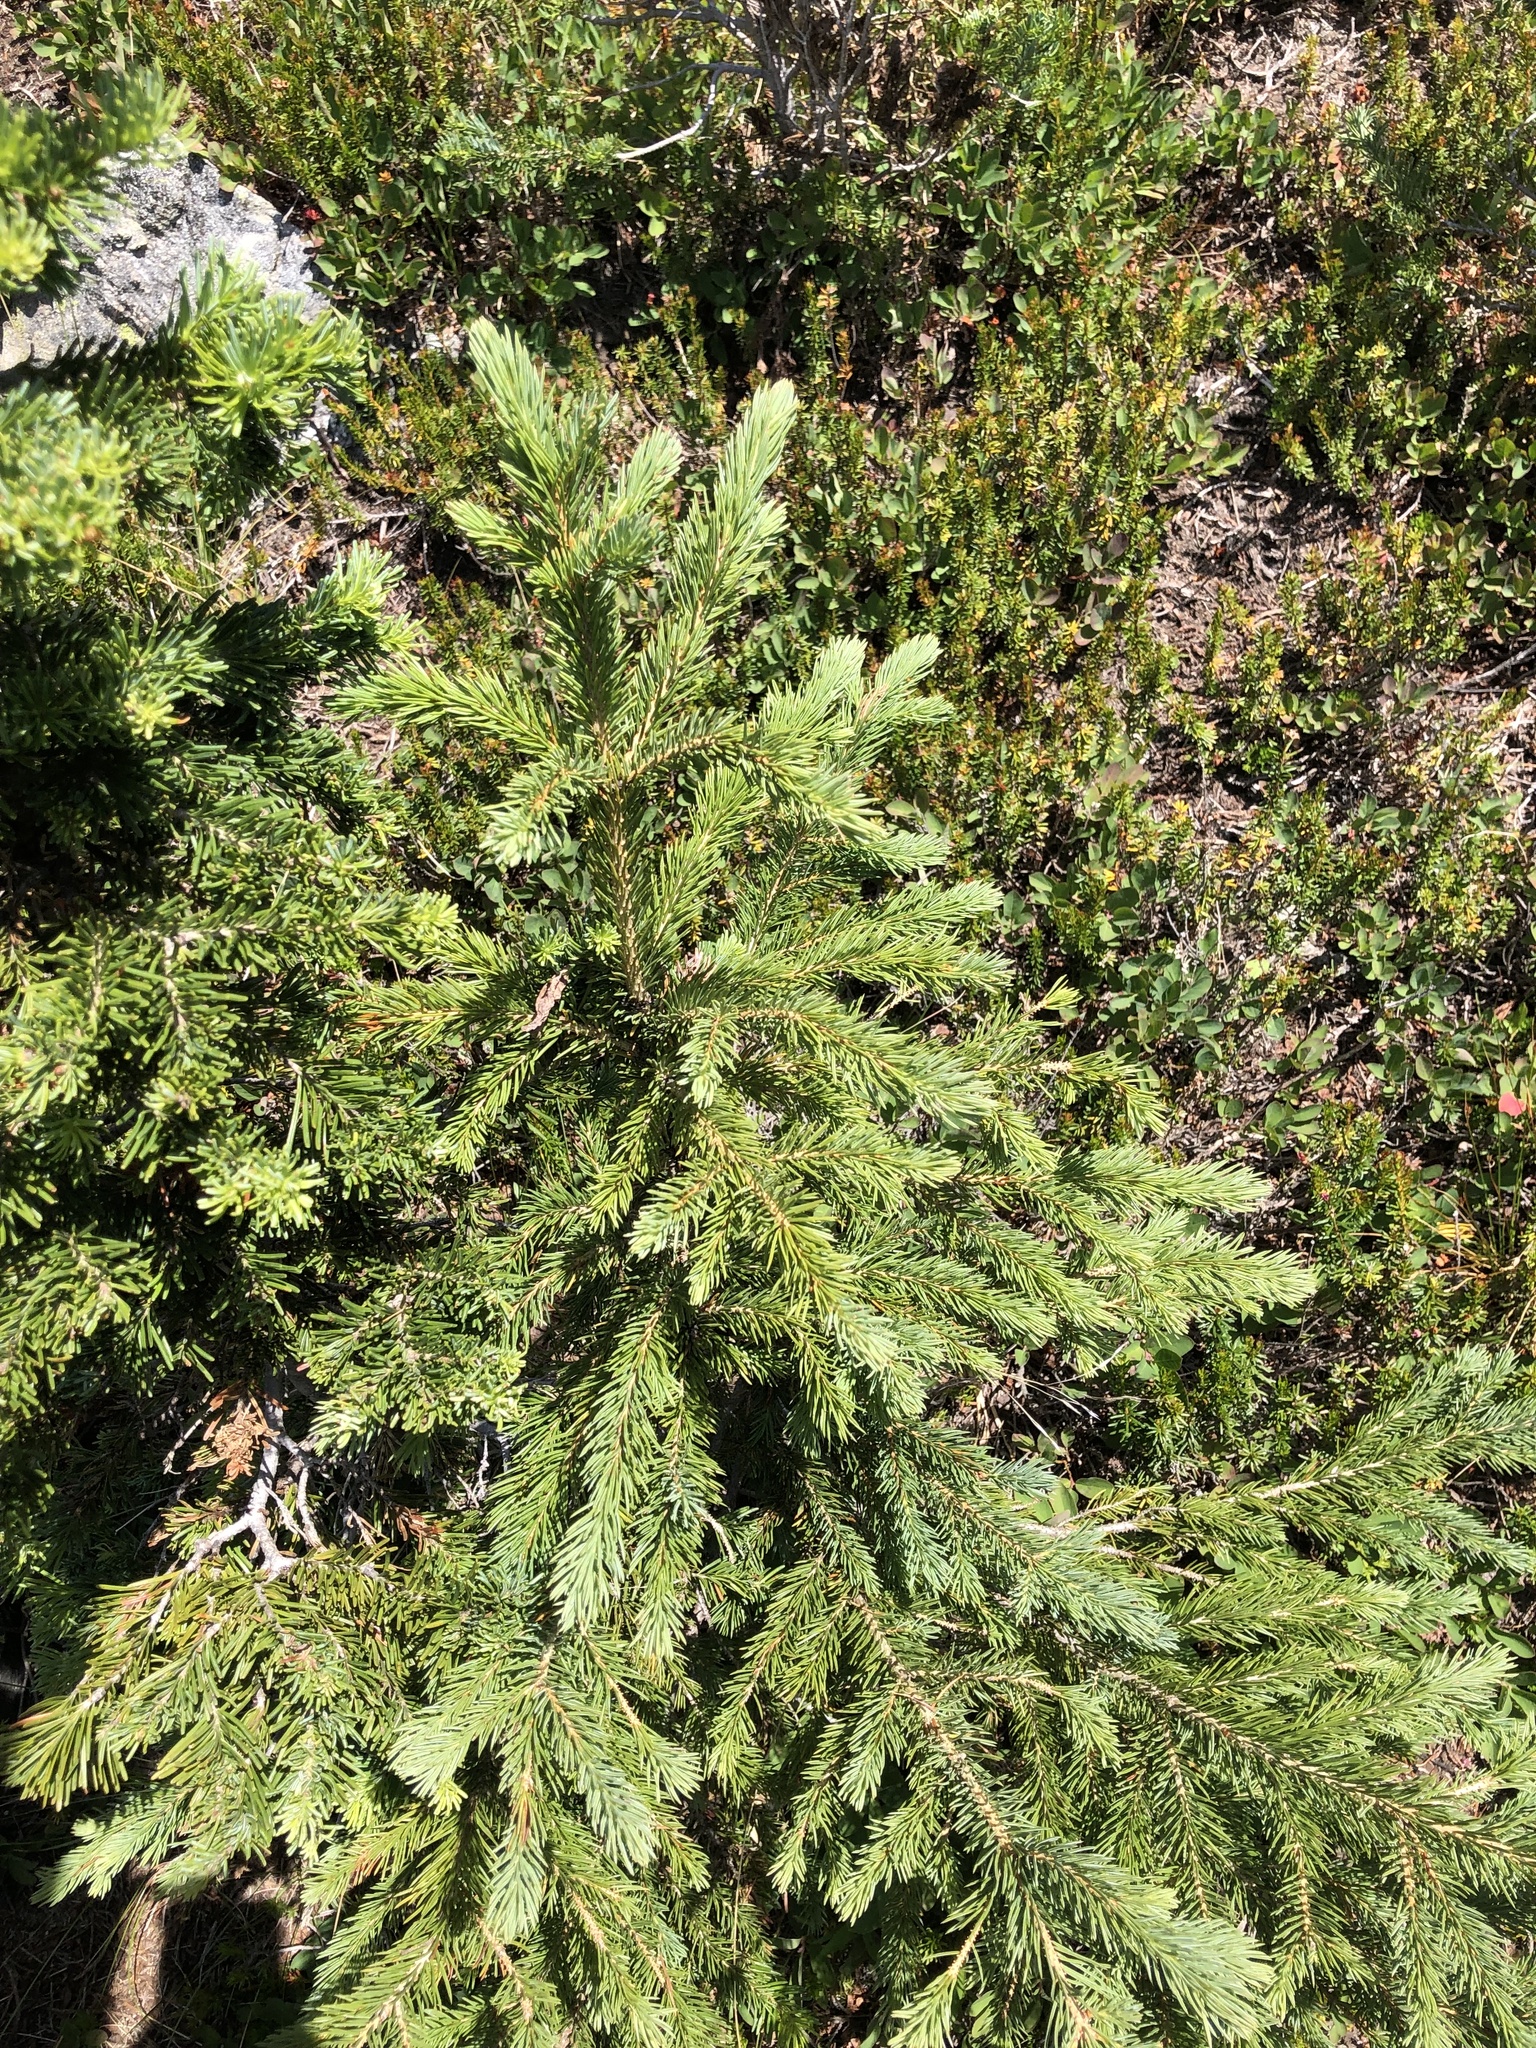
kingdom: Plantae
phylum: Tracheophyta
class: Pinopsida
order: Pinales
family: Pinaceae
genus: Picea
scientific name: Picea engelmannii
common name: Engelmann spruce
